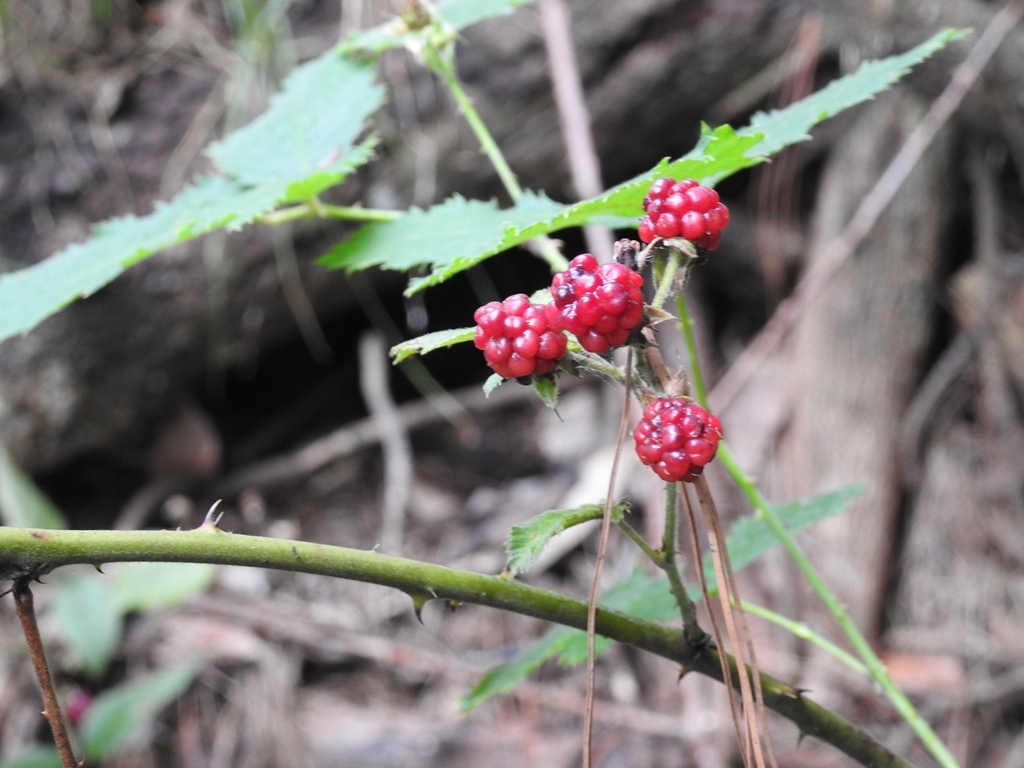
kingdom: Plantae
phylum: Tracheophyta
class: Magnoliopsida
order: Rosales
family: Rosaceae
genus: Rubus
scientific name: Rubus adenotrichos
